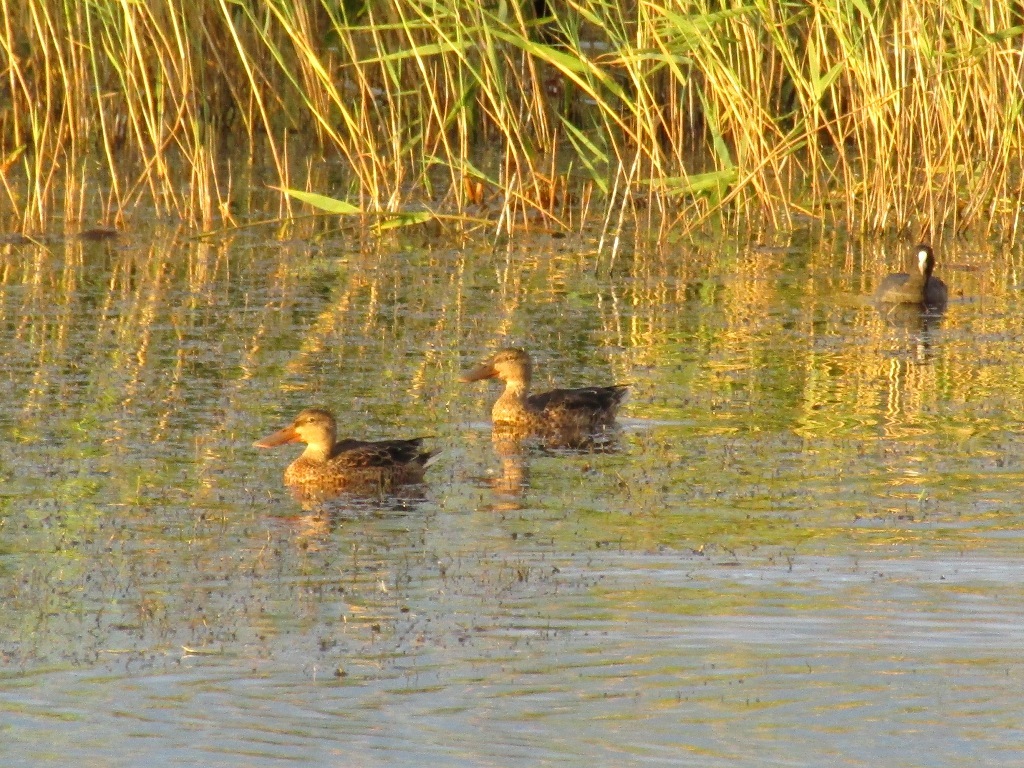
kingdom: Animalia
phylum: Chordata
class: Aves
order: Anseriformes
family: Anatidae
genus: Spatula
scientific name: Spatula clypeata
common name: Northern shoveler
